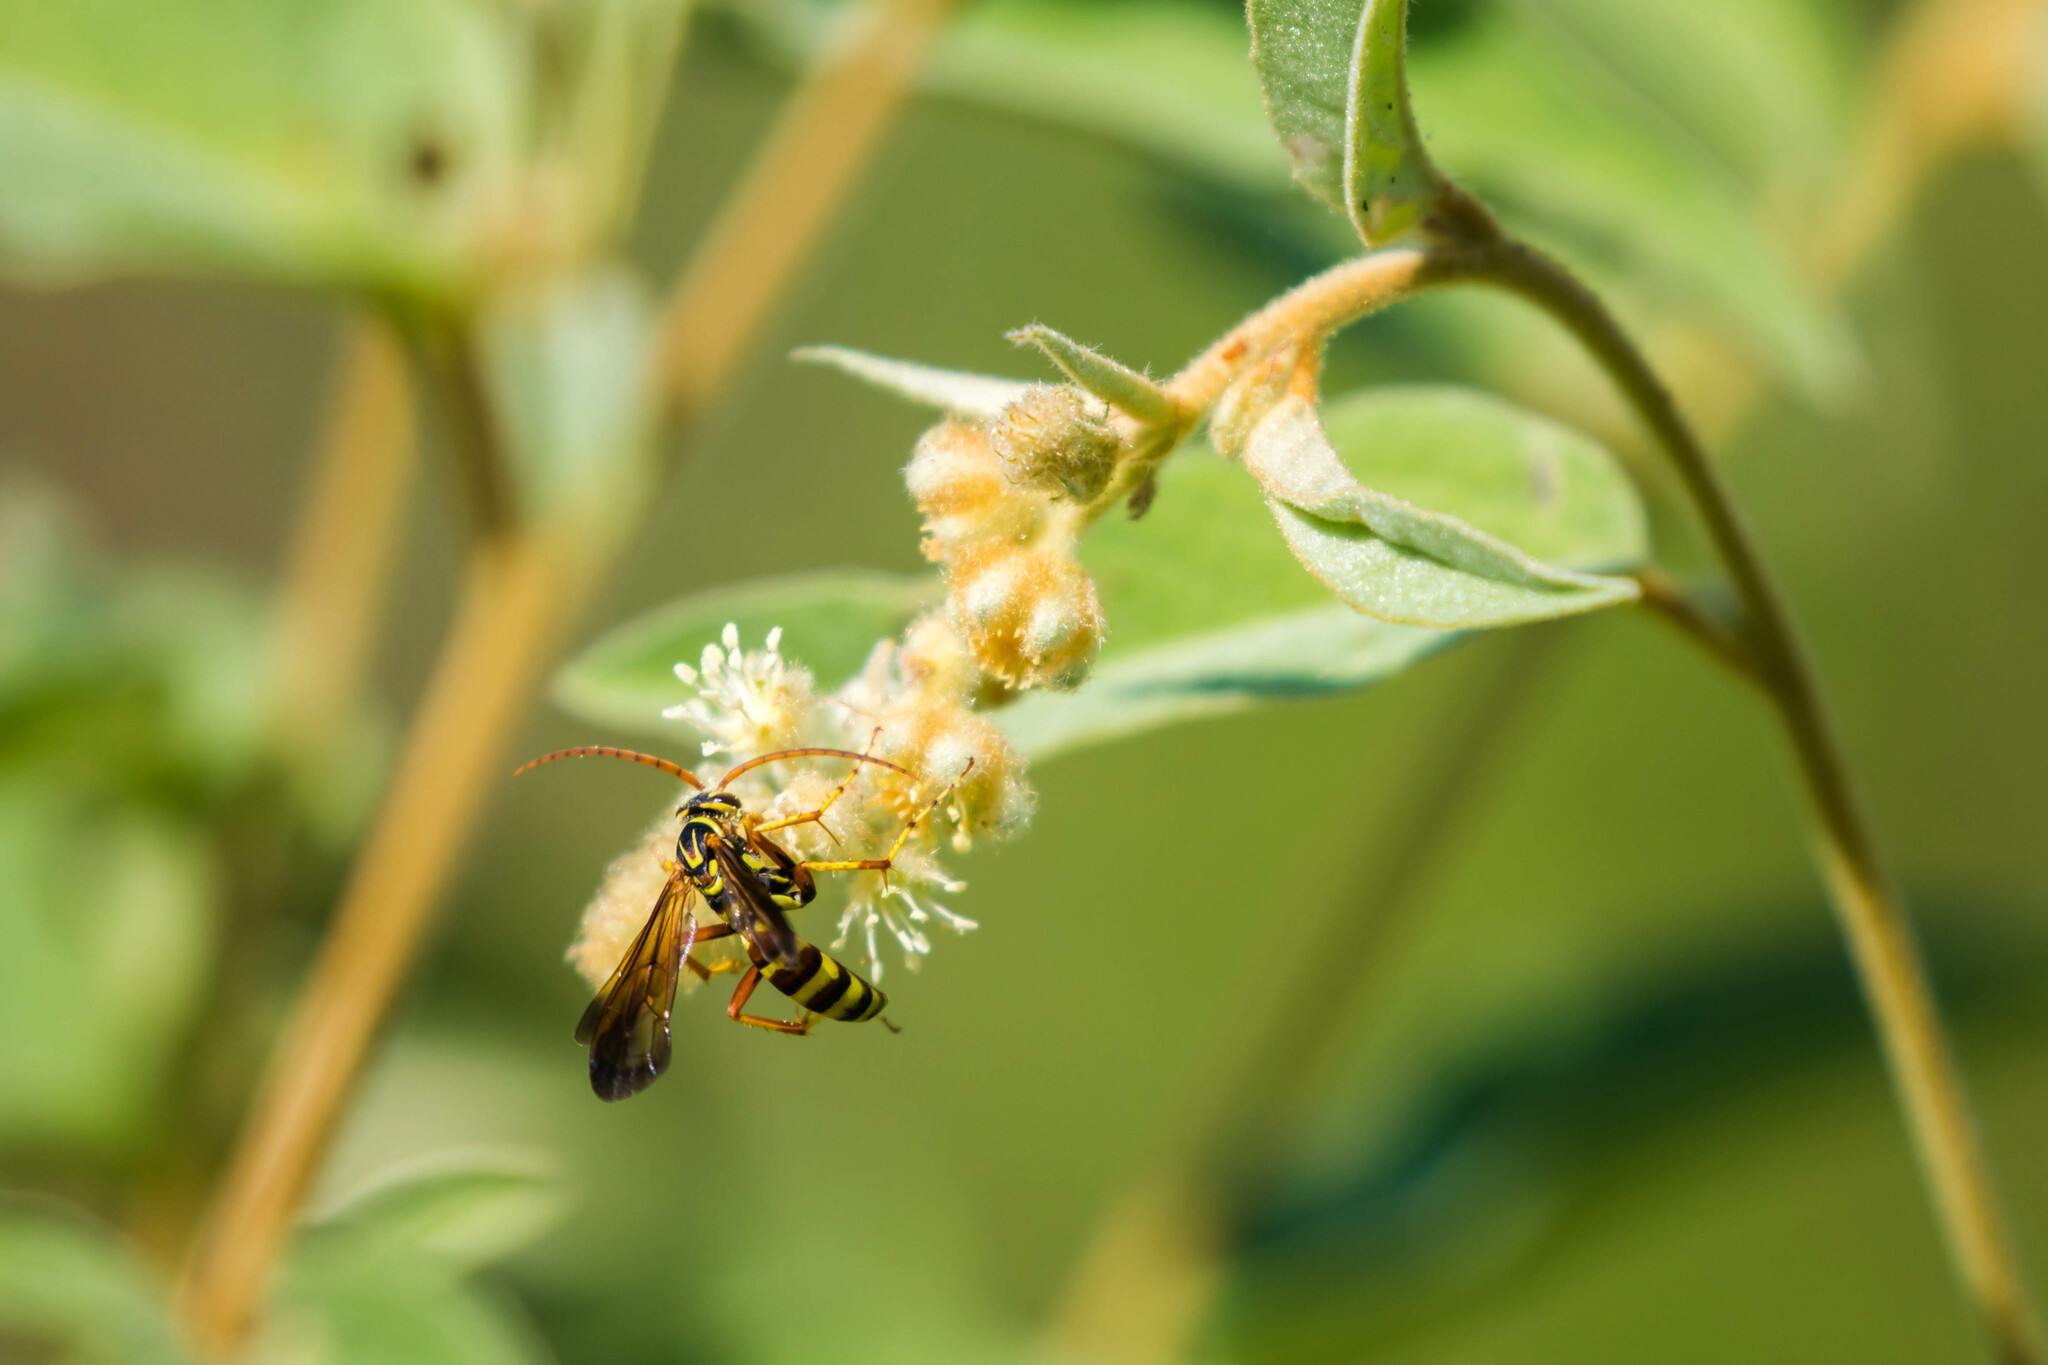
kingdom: Animalia
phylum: Arthropoda
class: Insecta
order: Hymenoptera
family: Pompilidae
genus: Poecilopompilus
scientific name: Poecilopompilus interruptus
